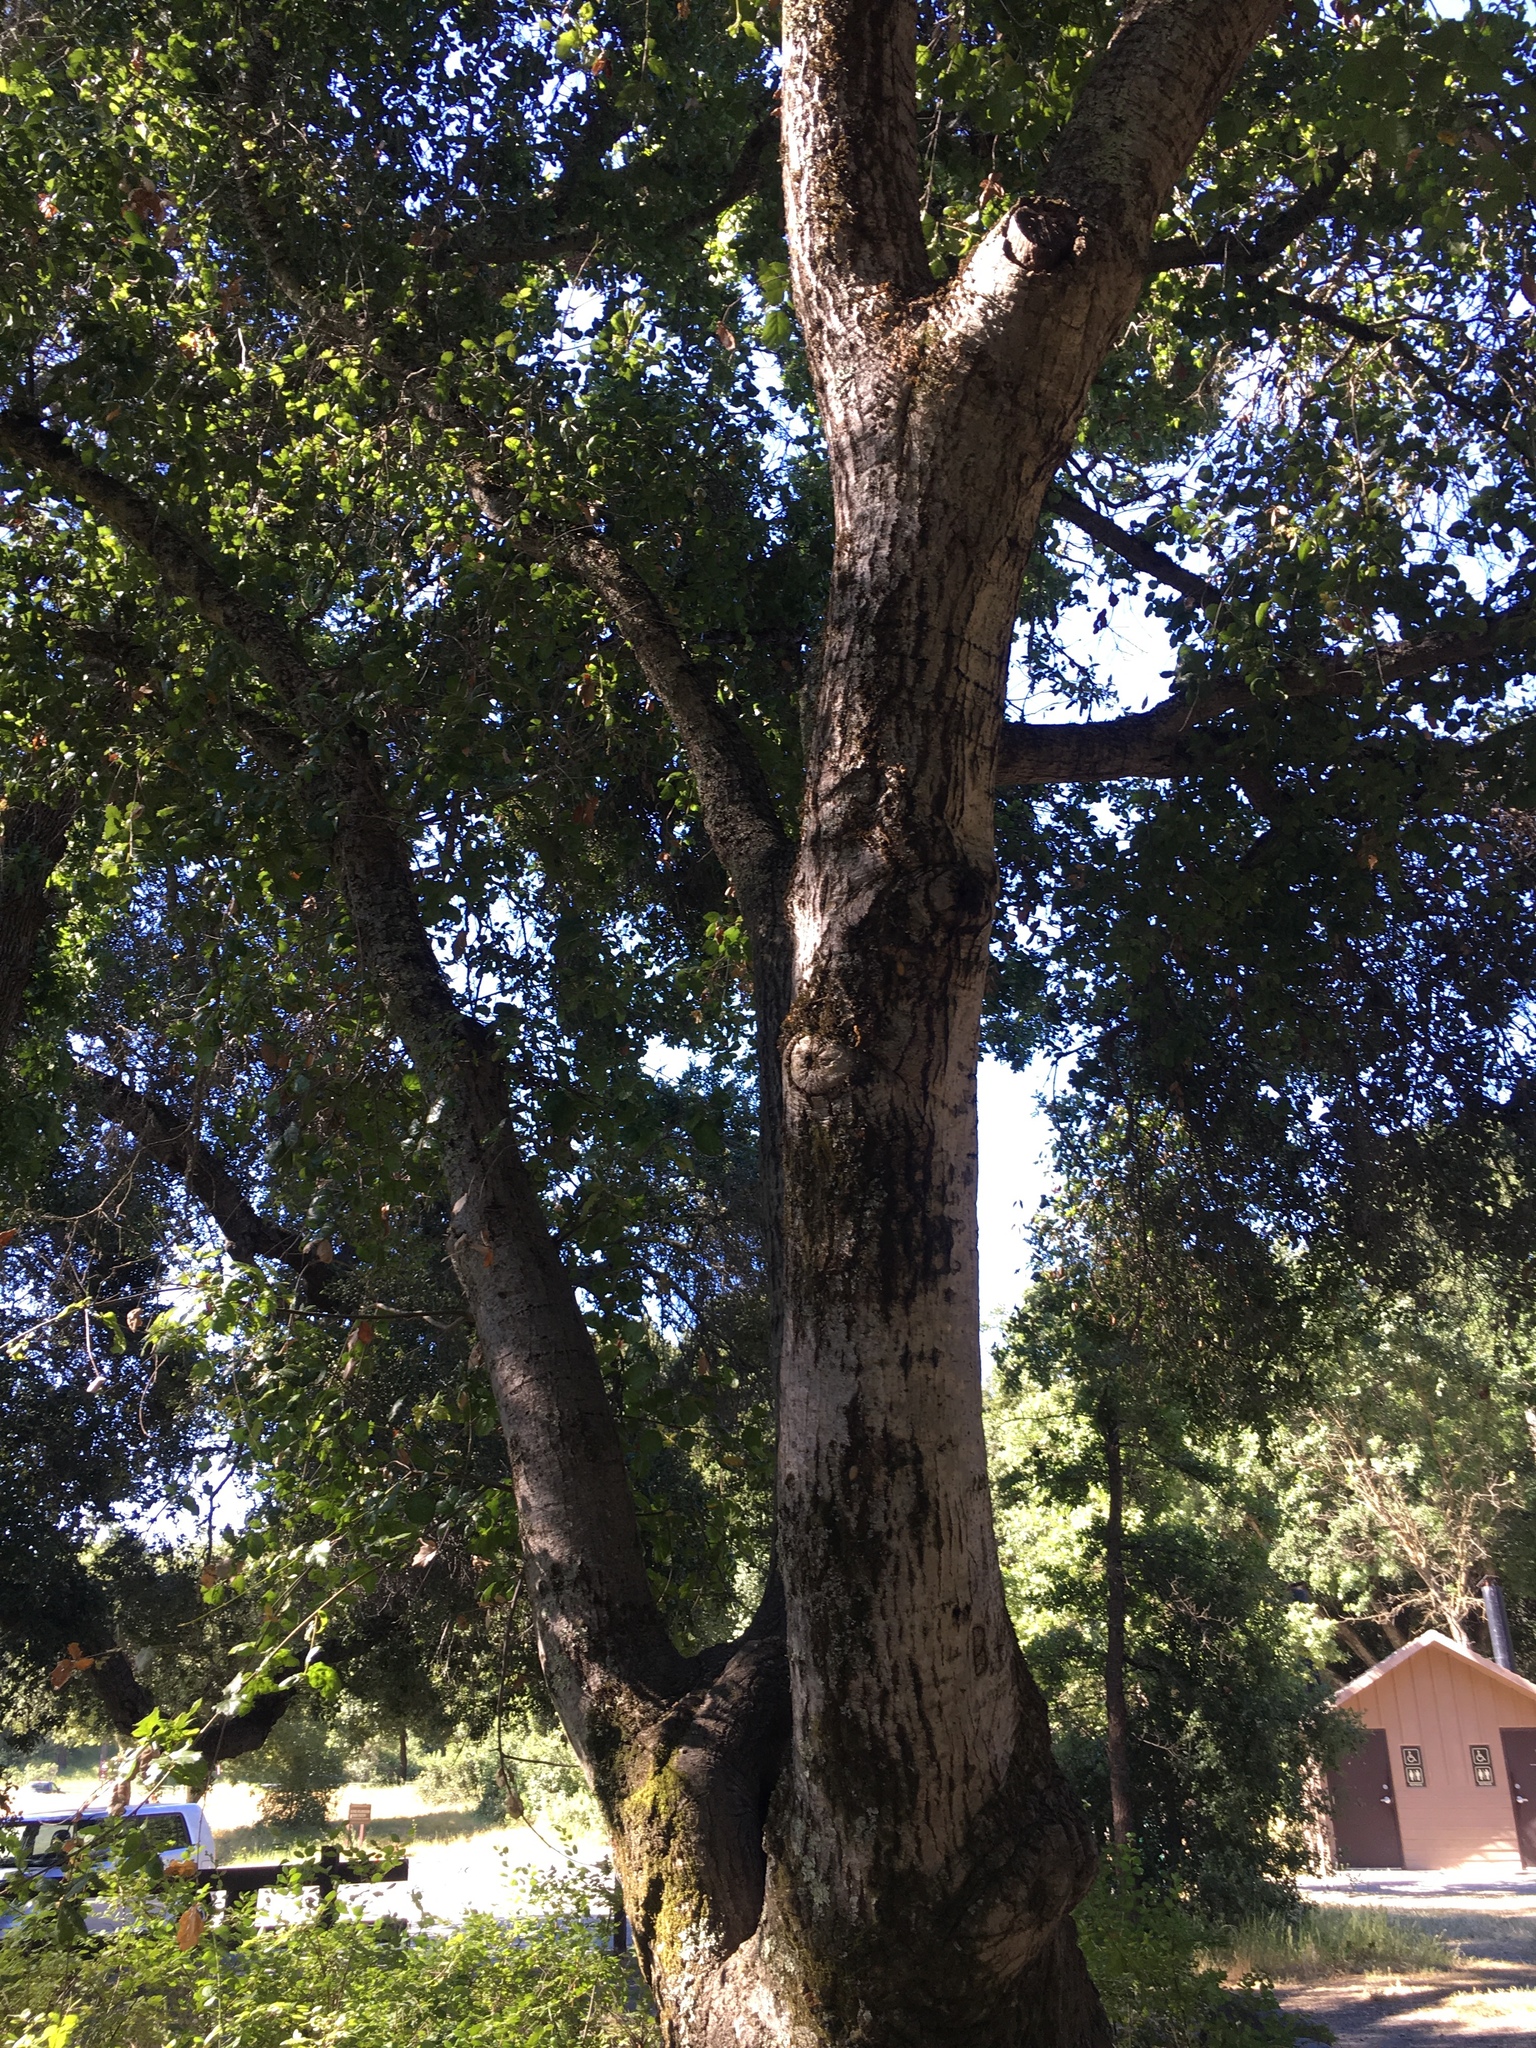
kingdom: Plantae
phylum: Tracheophyta
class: Magnoliopsida
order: Fagales
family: Fagaceae
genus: Quercus
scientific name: Quercus agrifolia
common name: California live oak
